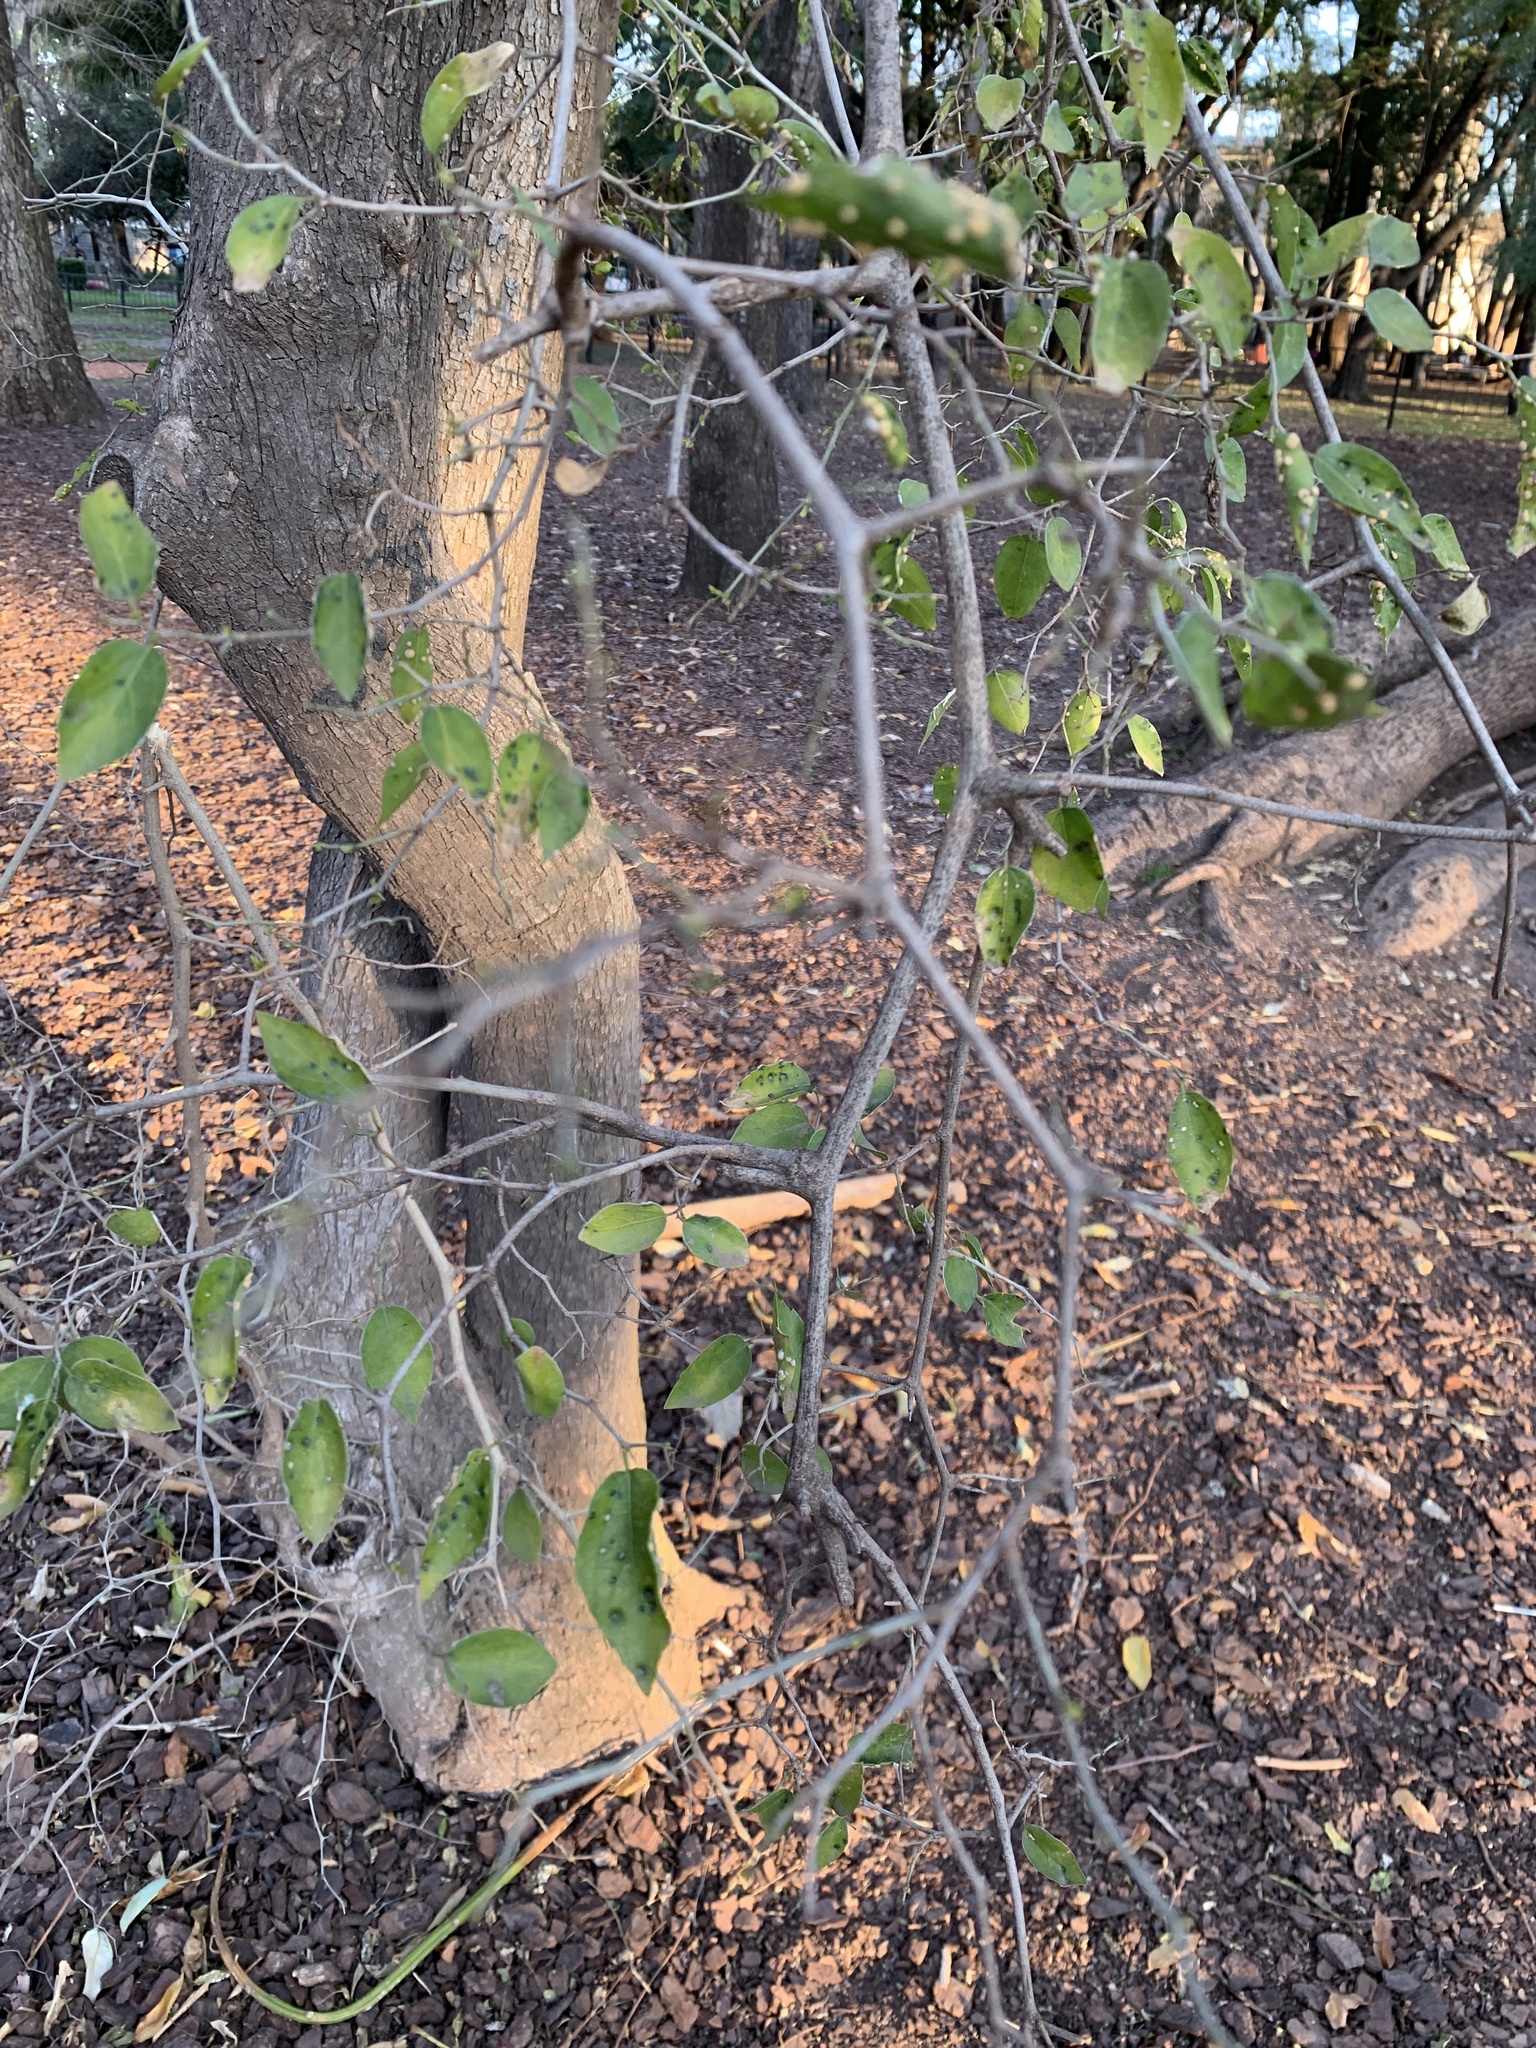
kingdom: Plantae
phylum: Tracheophyta
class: Magnoliopsida
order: Rosales
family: Cannabaceae
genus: Celtis
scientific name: Celtis tala
